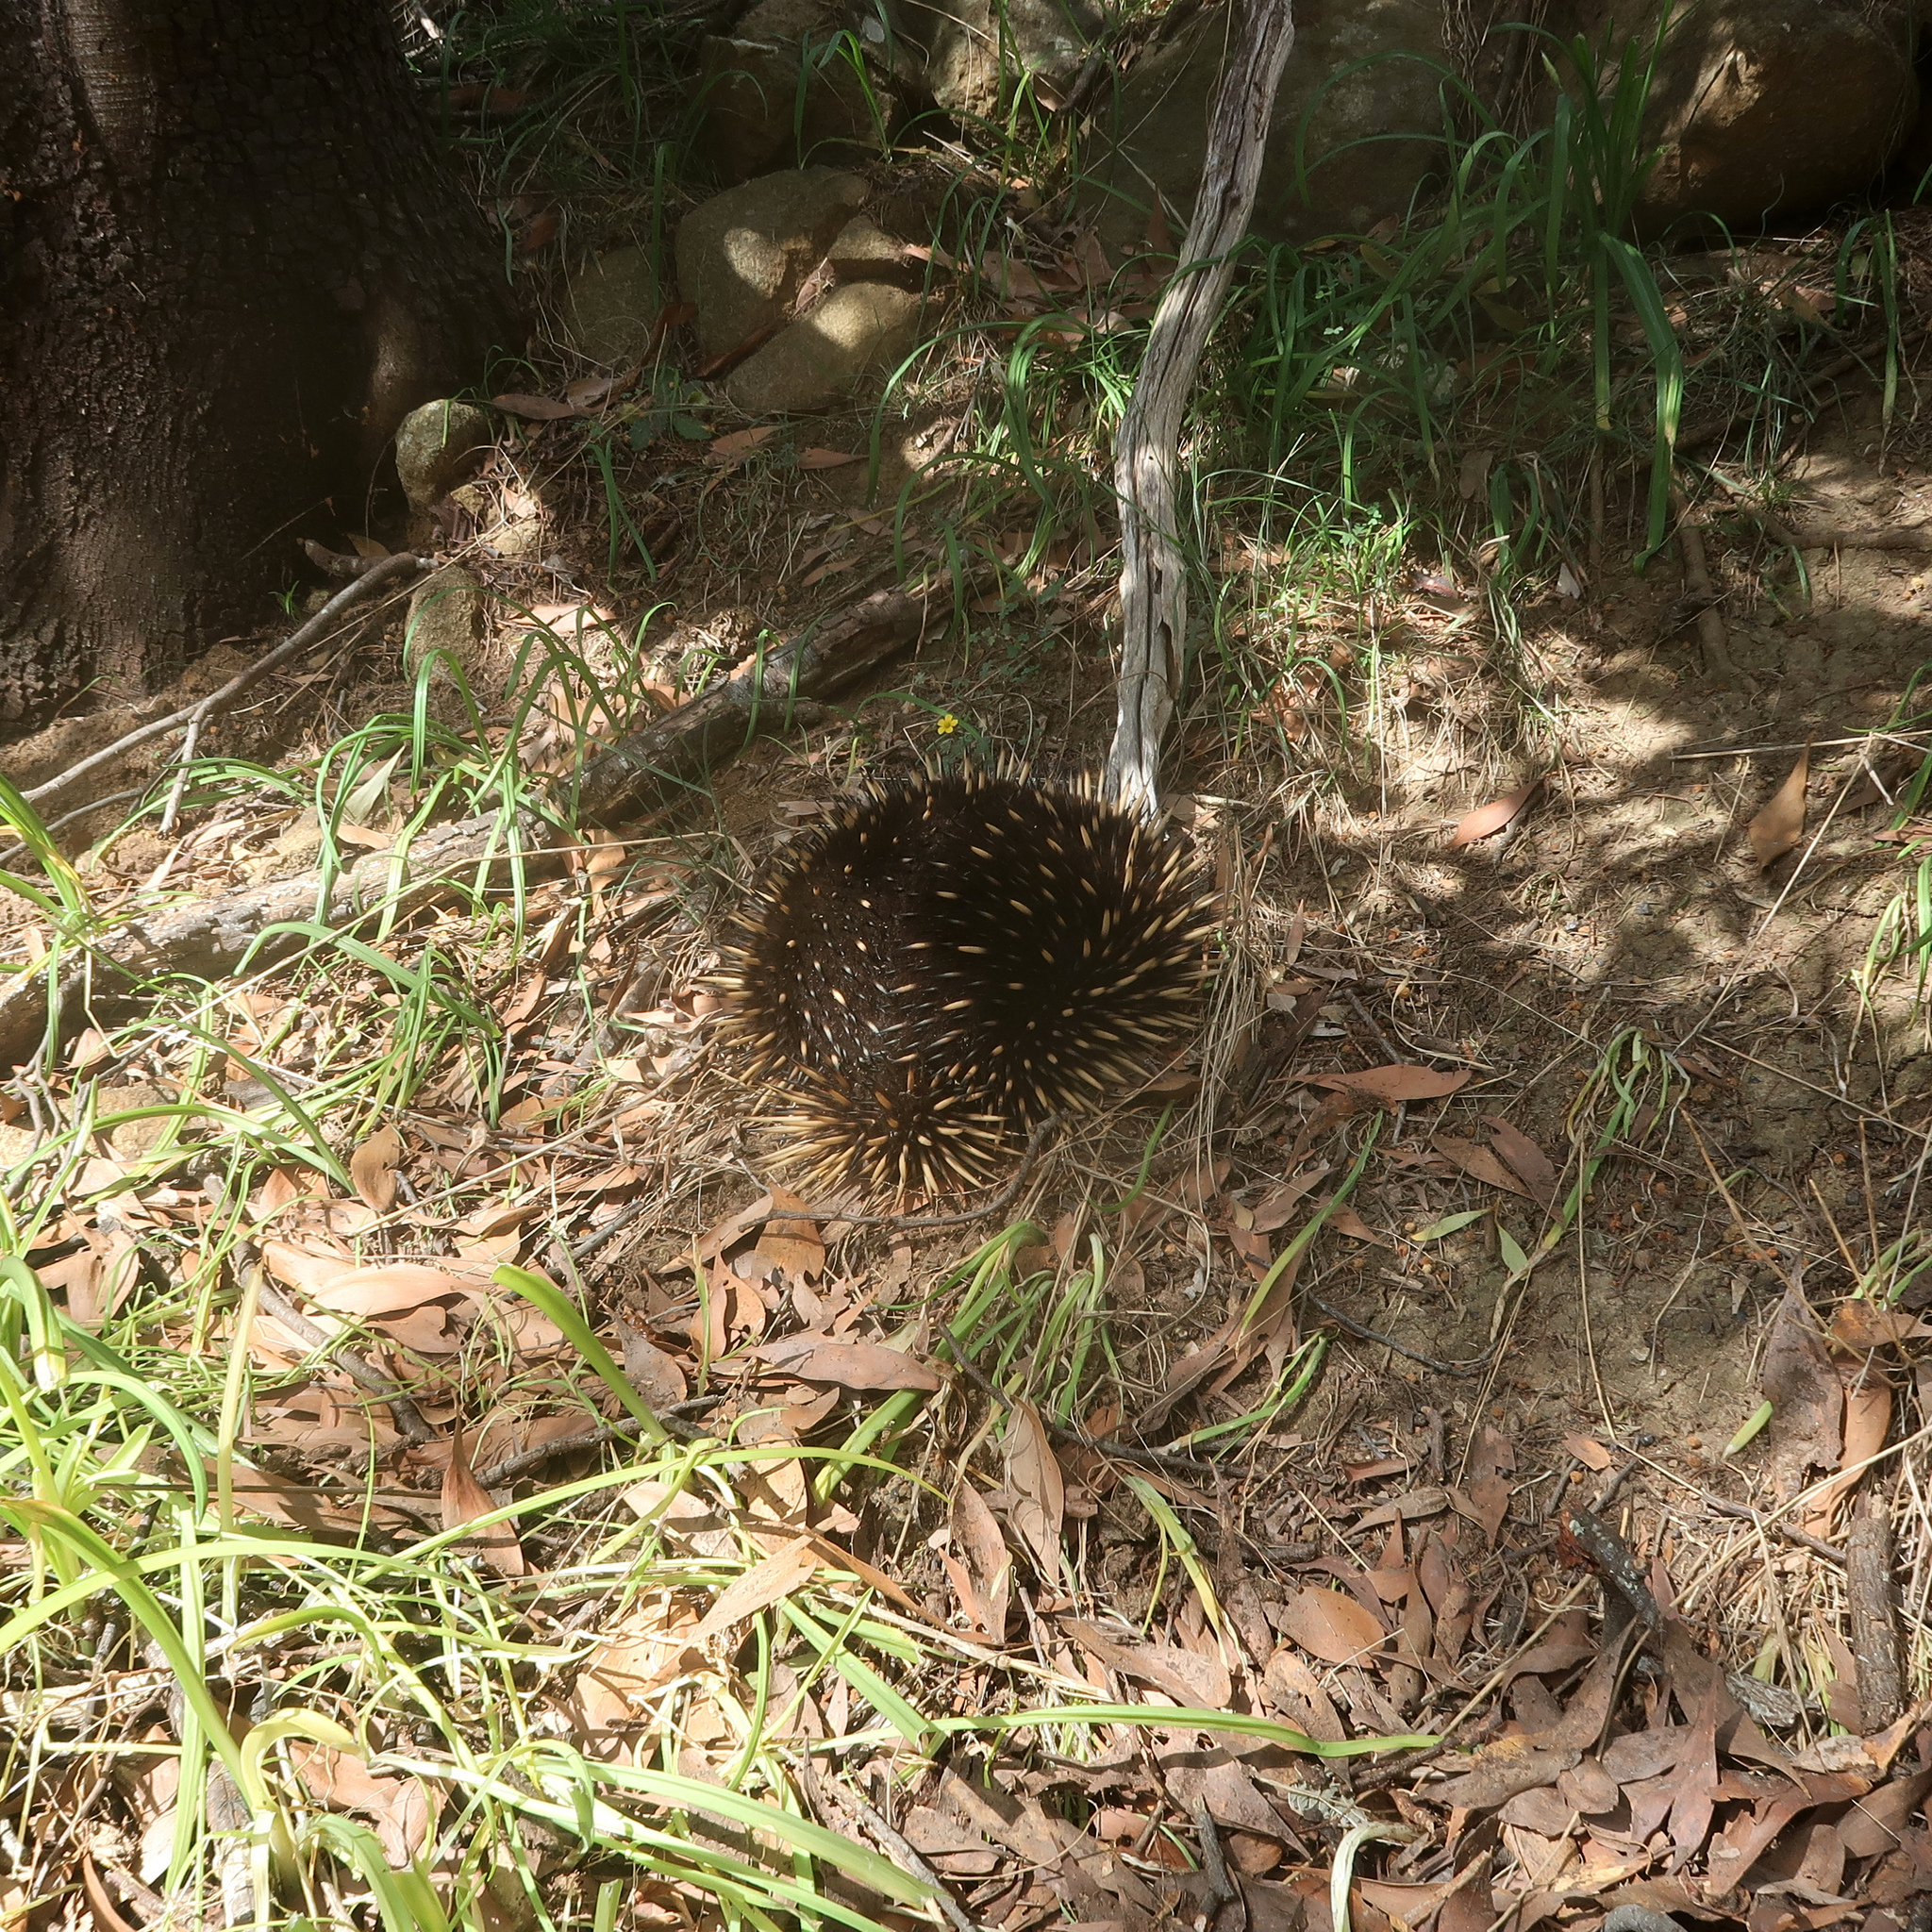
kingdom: Animalia
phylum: Chordata
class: Mammalia
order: Monotremata
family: Tachyglossidae
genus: Tachyglossus
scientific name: Tachyglossus aculeatus
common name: Short-beaked echidna
